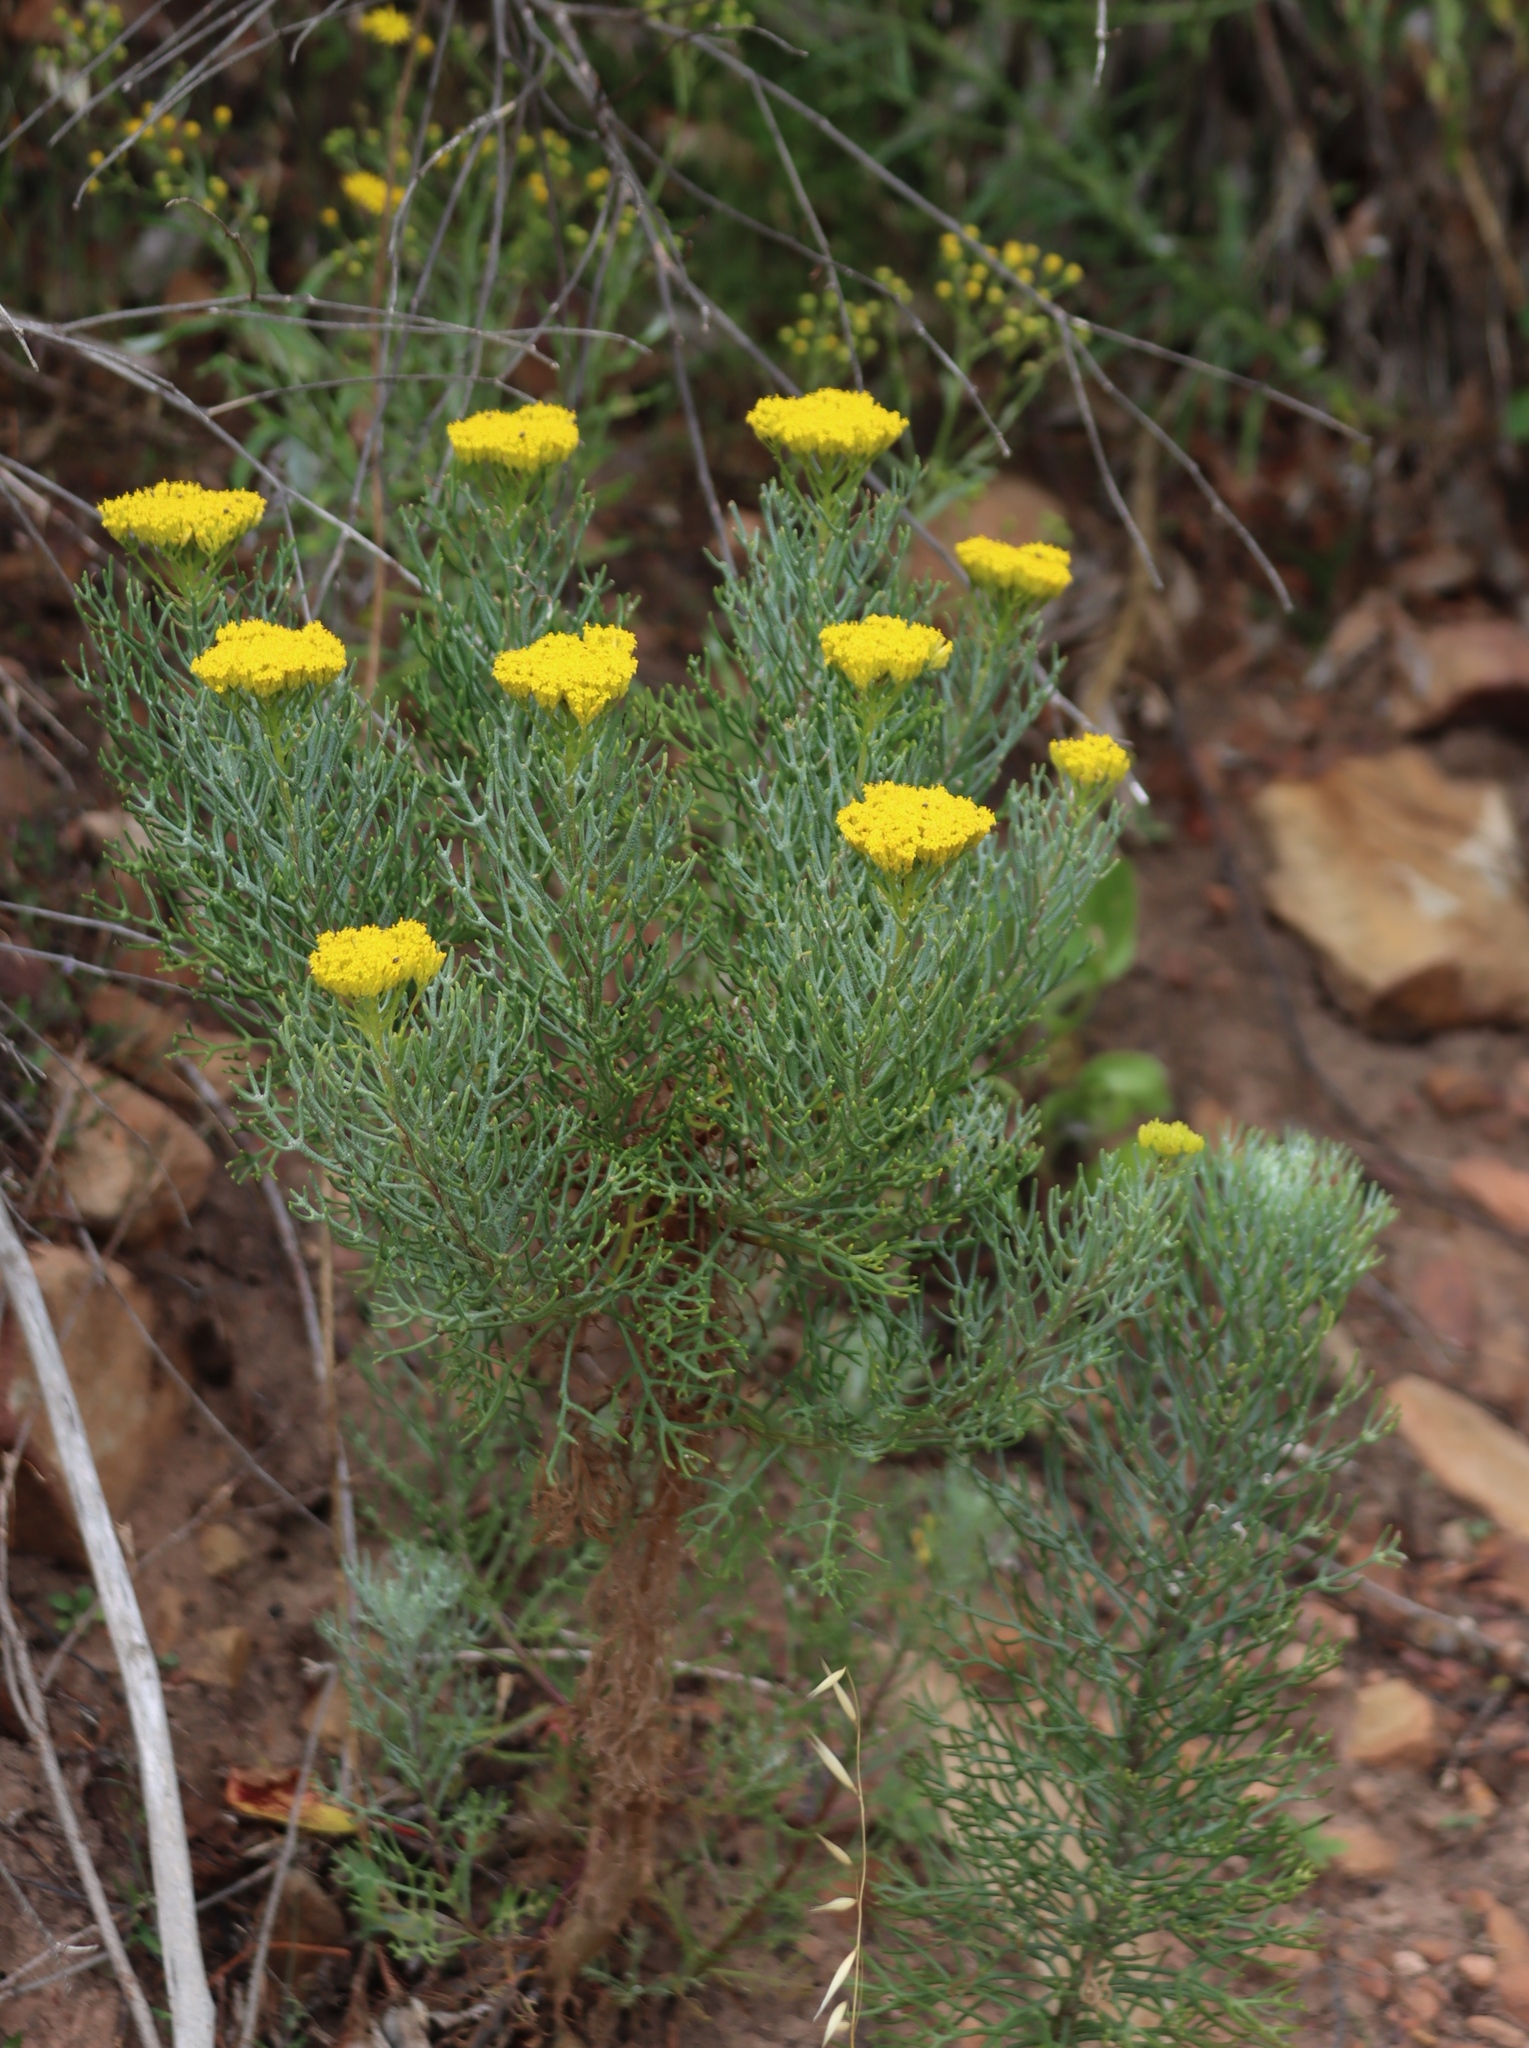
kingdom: Plantae
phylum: Tracheophyta
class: Magnoliopsida
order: Asterales
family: Asteraceae
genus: Hymenolepis
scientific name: Hymenolepis crithmifolia
